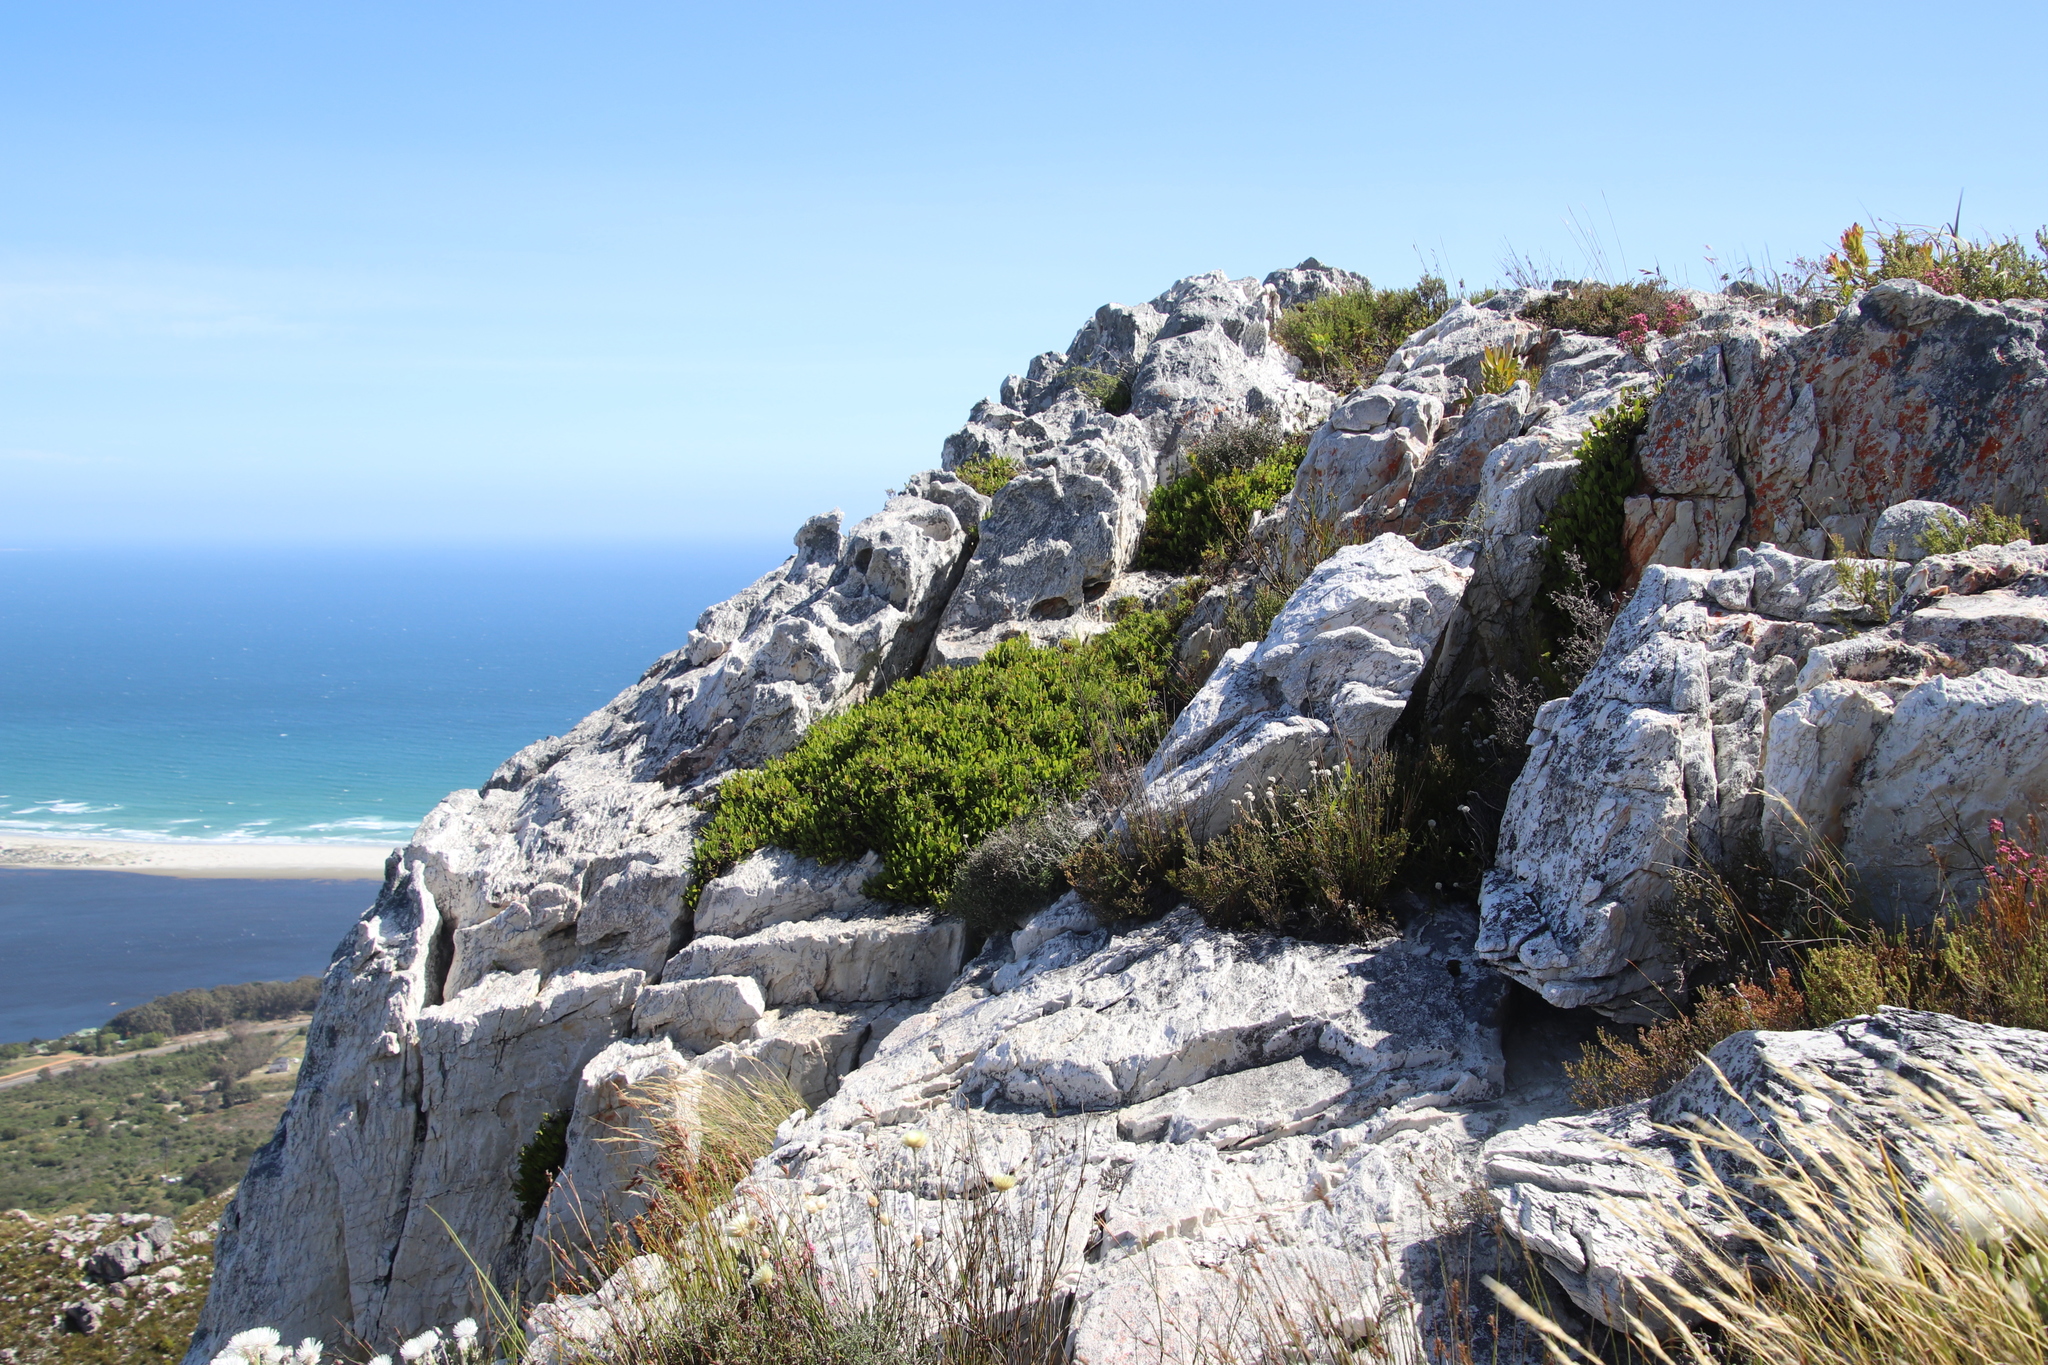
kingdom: Plantae
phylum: Tracheophyta
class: Magnoliopsida
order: Apiales
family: Apiaceae
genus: Centella
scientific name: Centella triloba
